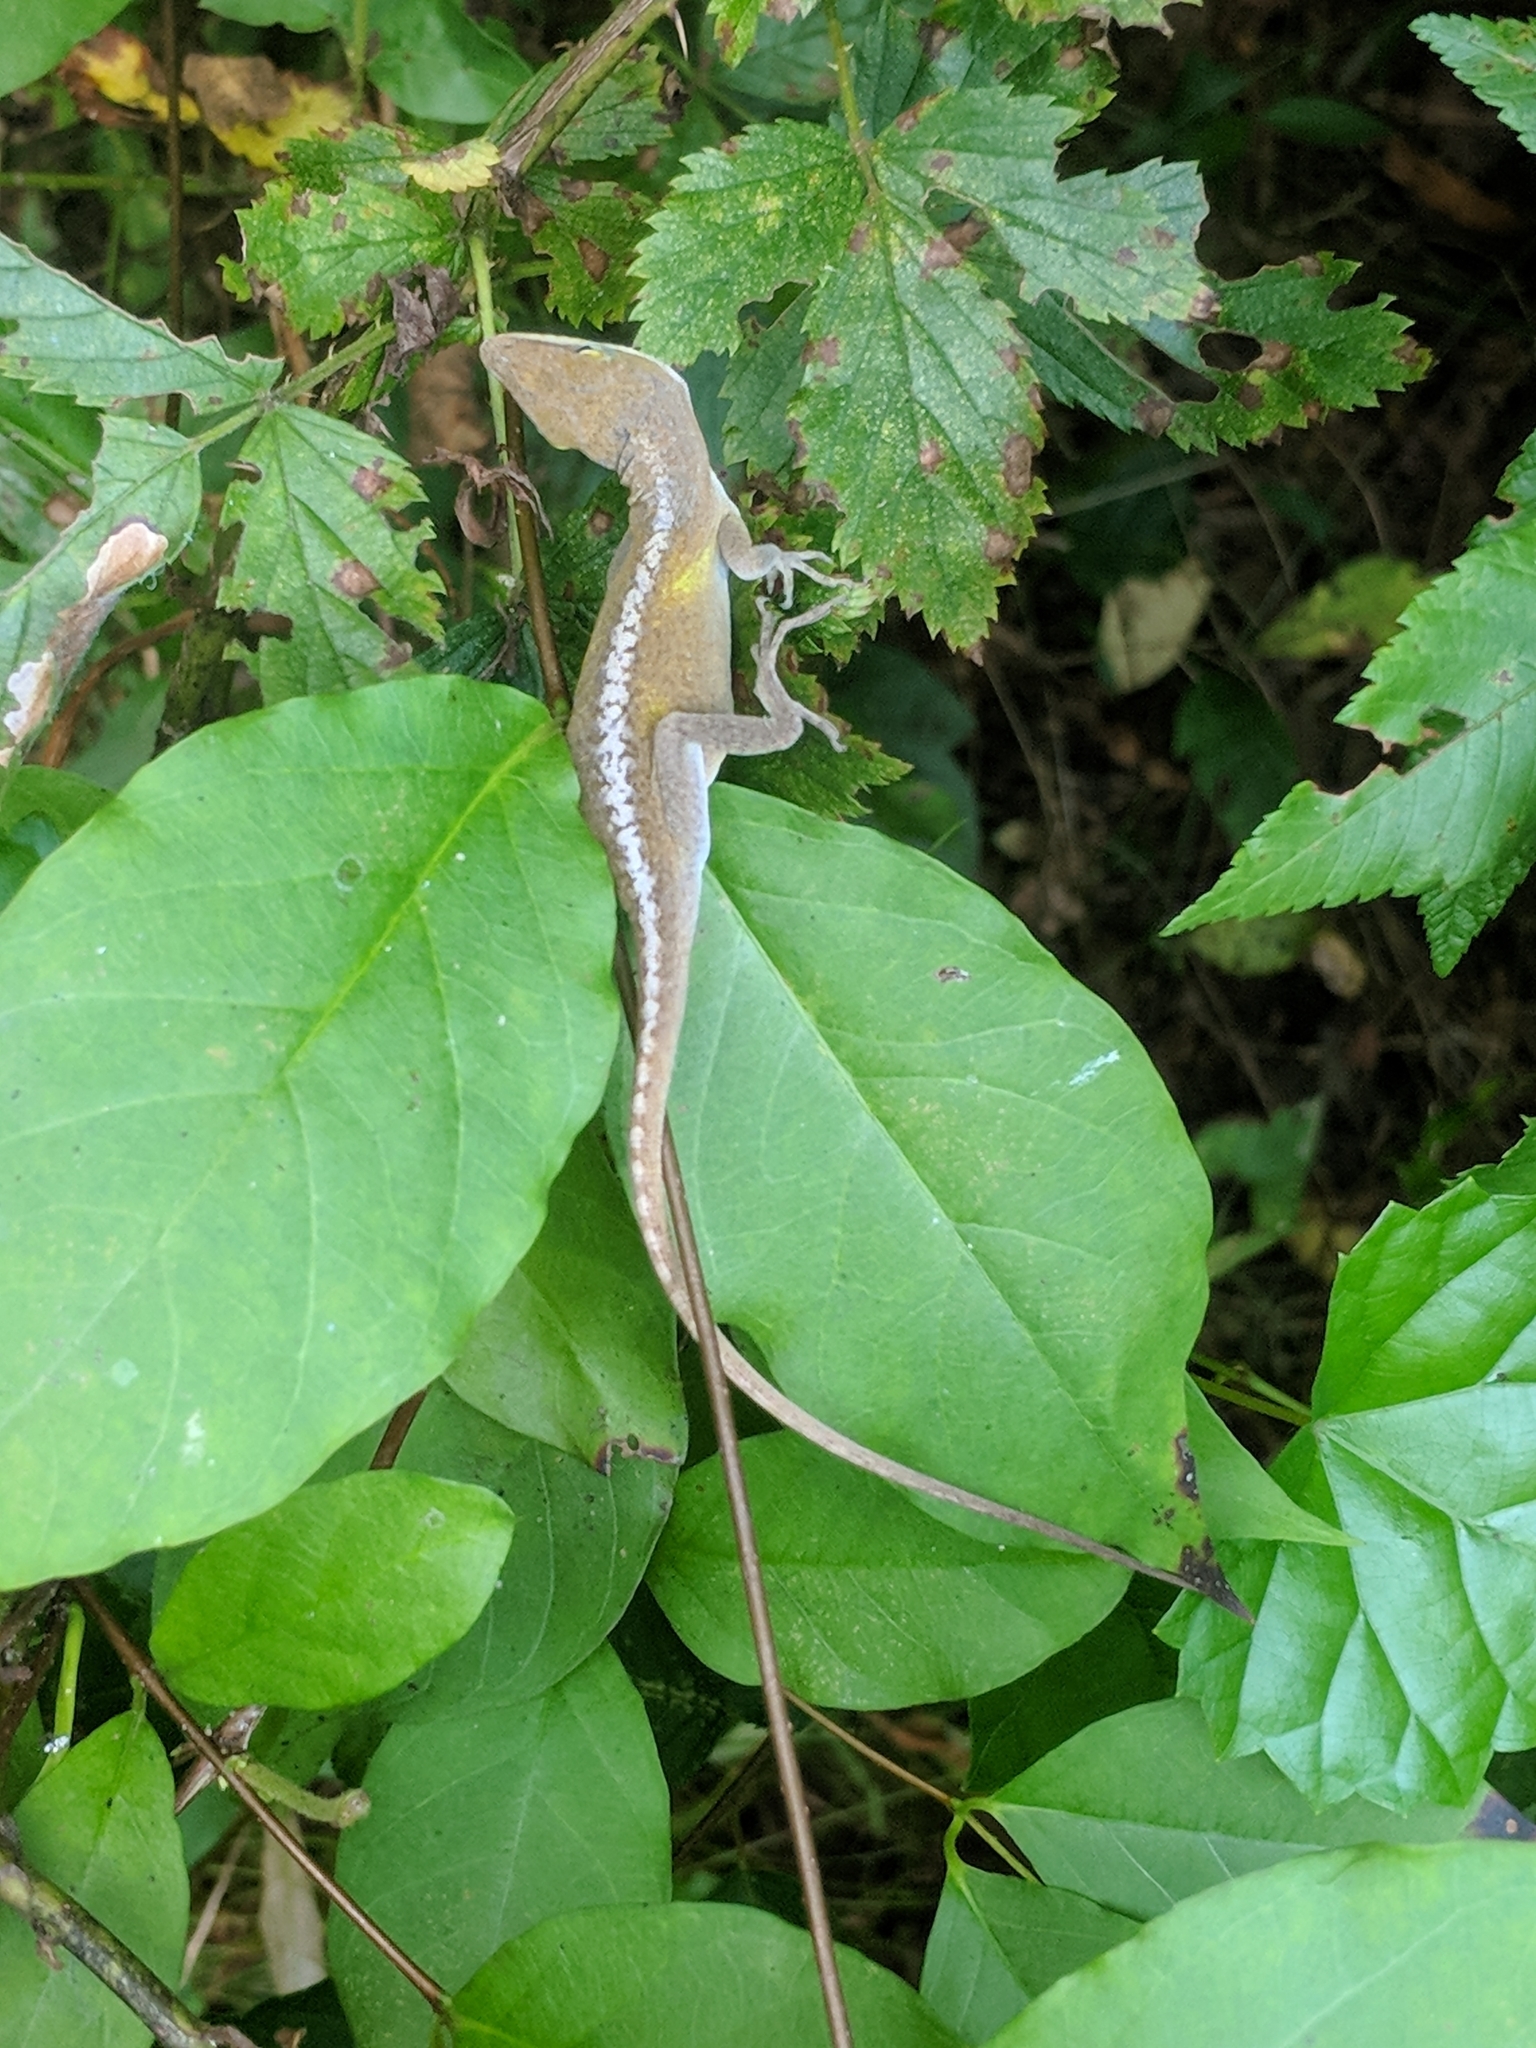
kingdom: Animalia
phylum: Chordata
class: Squamata
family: Dactyloidae
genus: Anolis
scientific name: Anolis carolinensis
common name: Green anole
